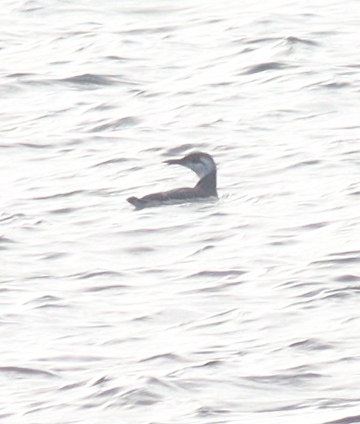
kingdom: Animalia
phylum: Chordata
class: Aves
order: Charadriiformes
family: Alcidae
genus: Uria
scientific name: Uria aalge
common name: Common murre
